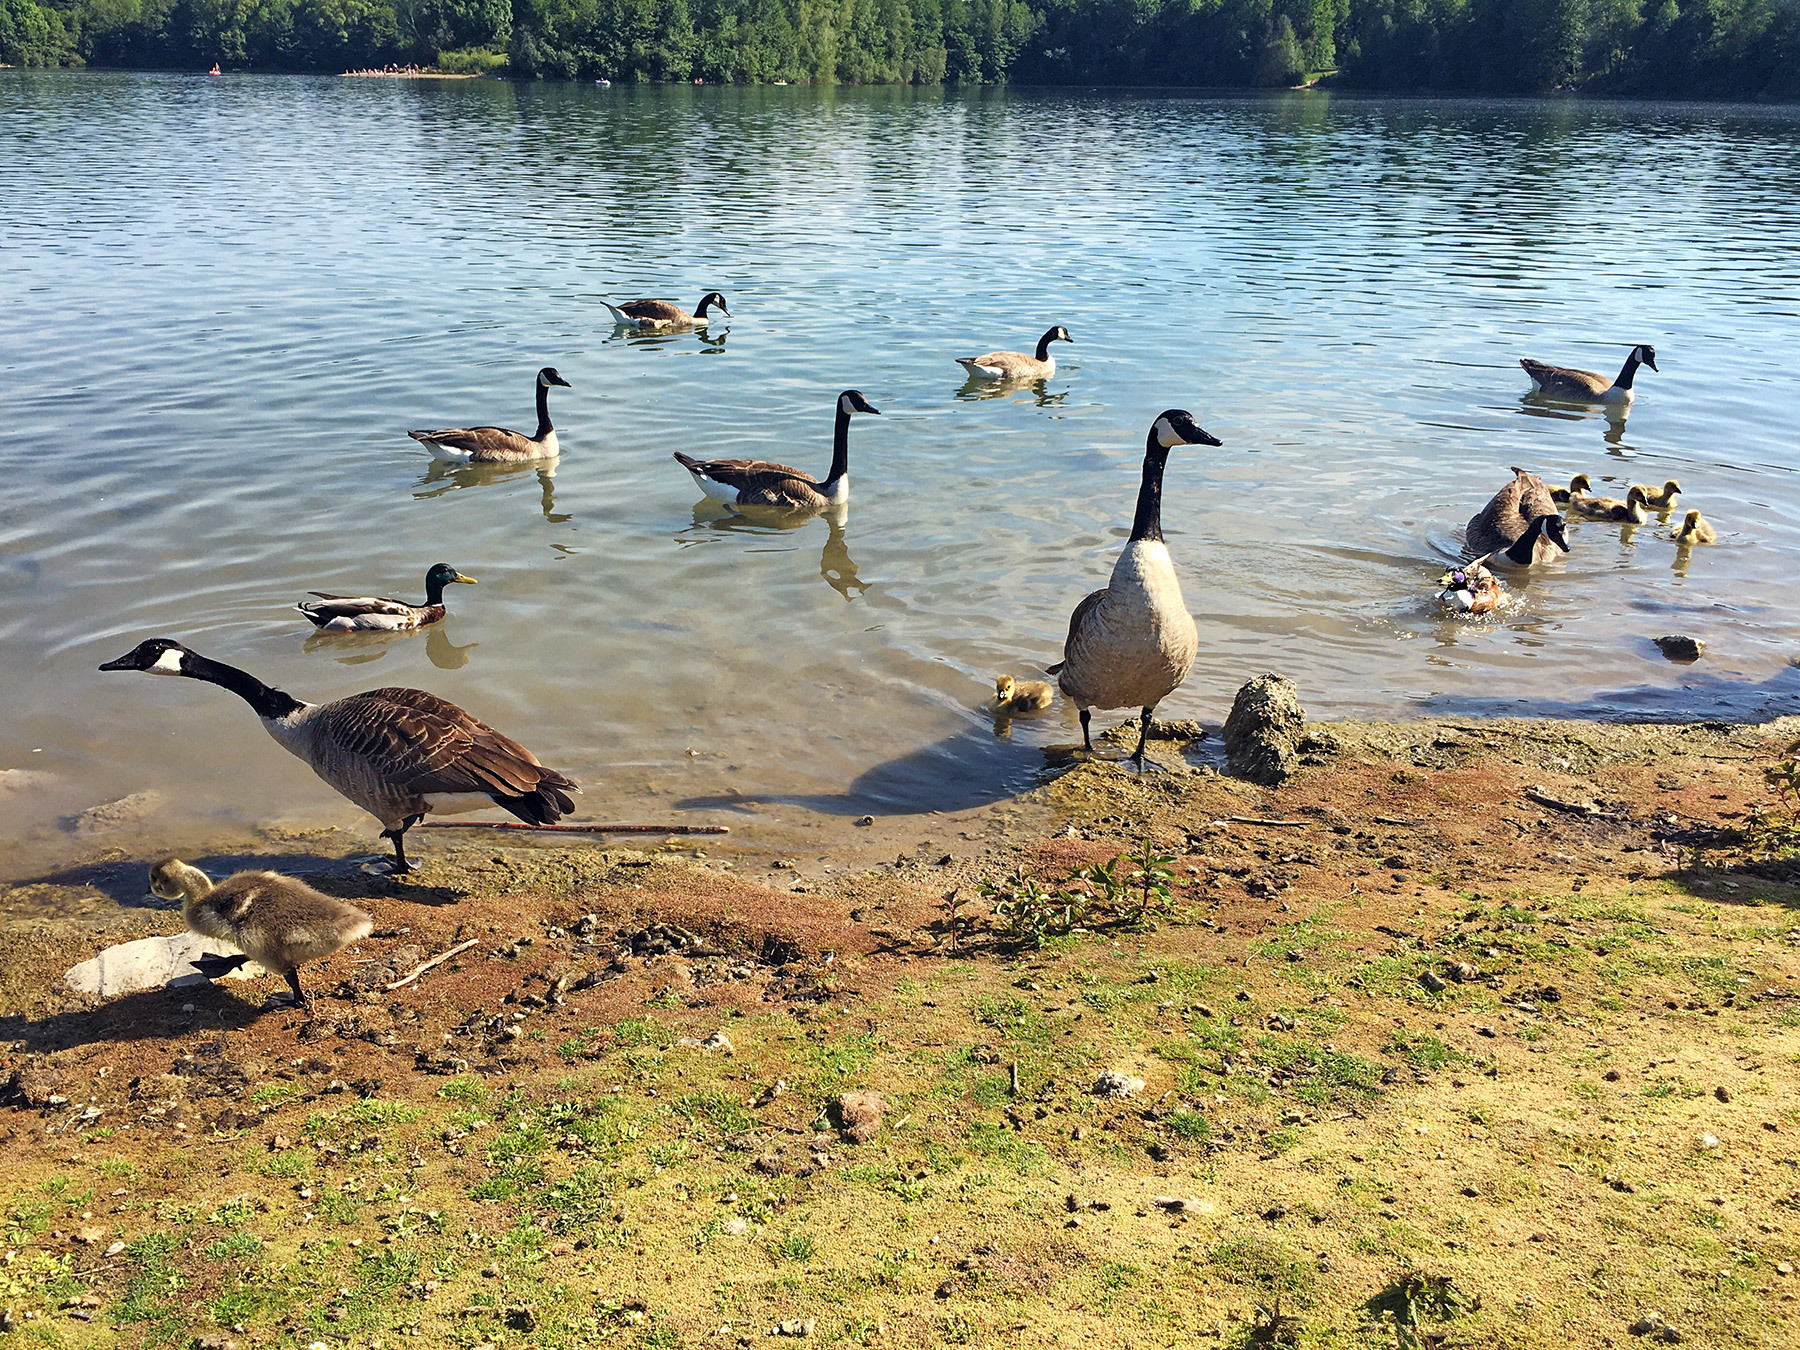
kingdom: Animalia
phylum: Chordata
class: Aves
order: Anseriformes
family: Anatidae
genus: Branta
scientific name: Branta canadensis
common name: Canada goose
